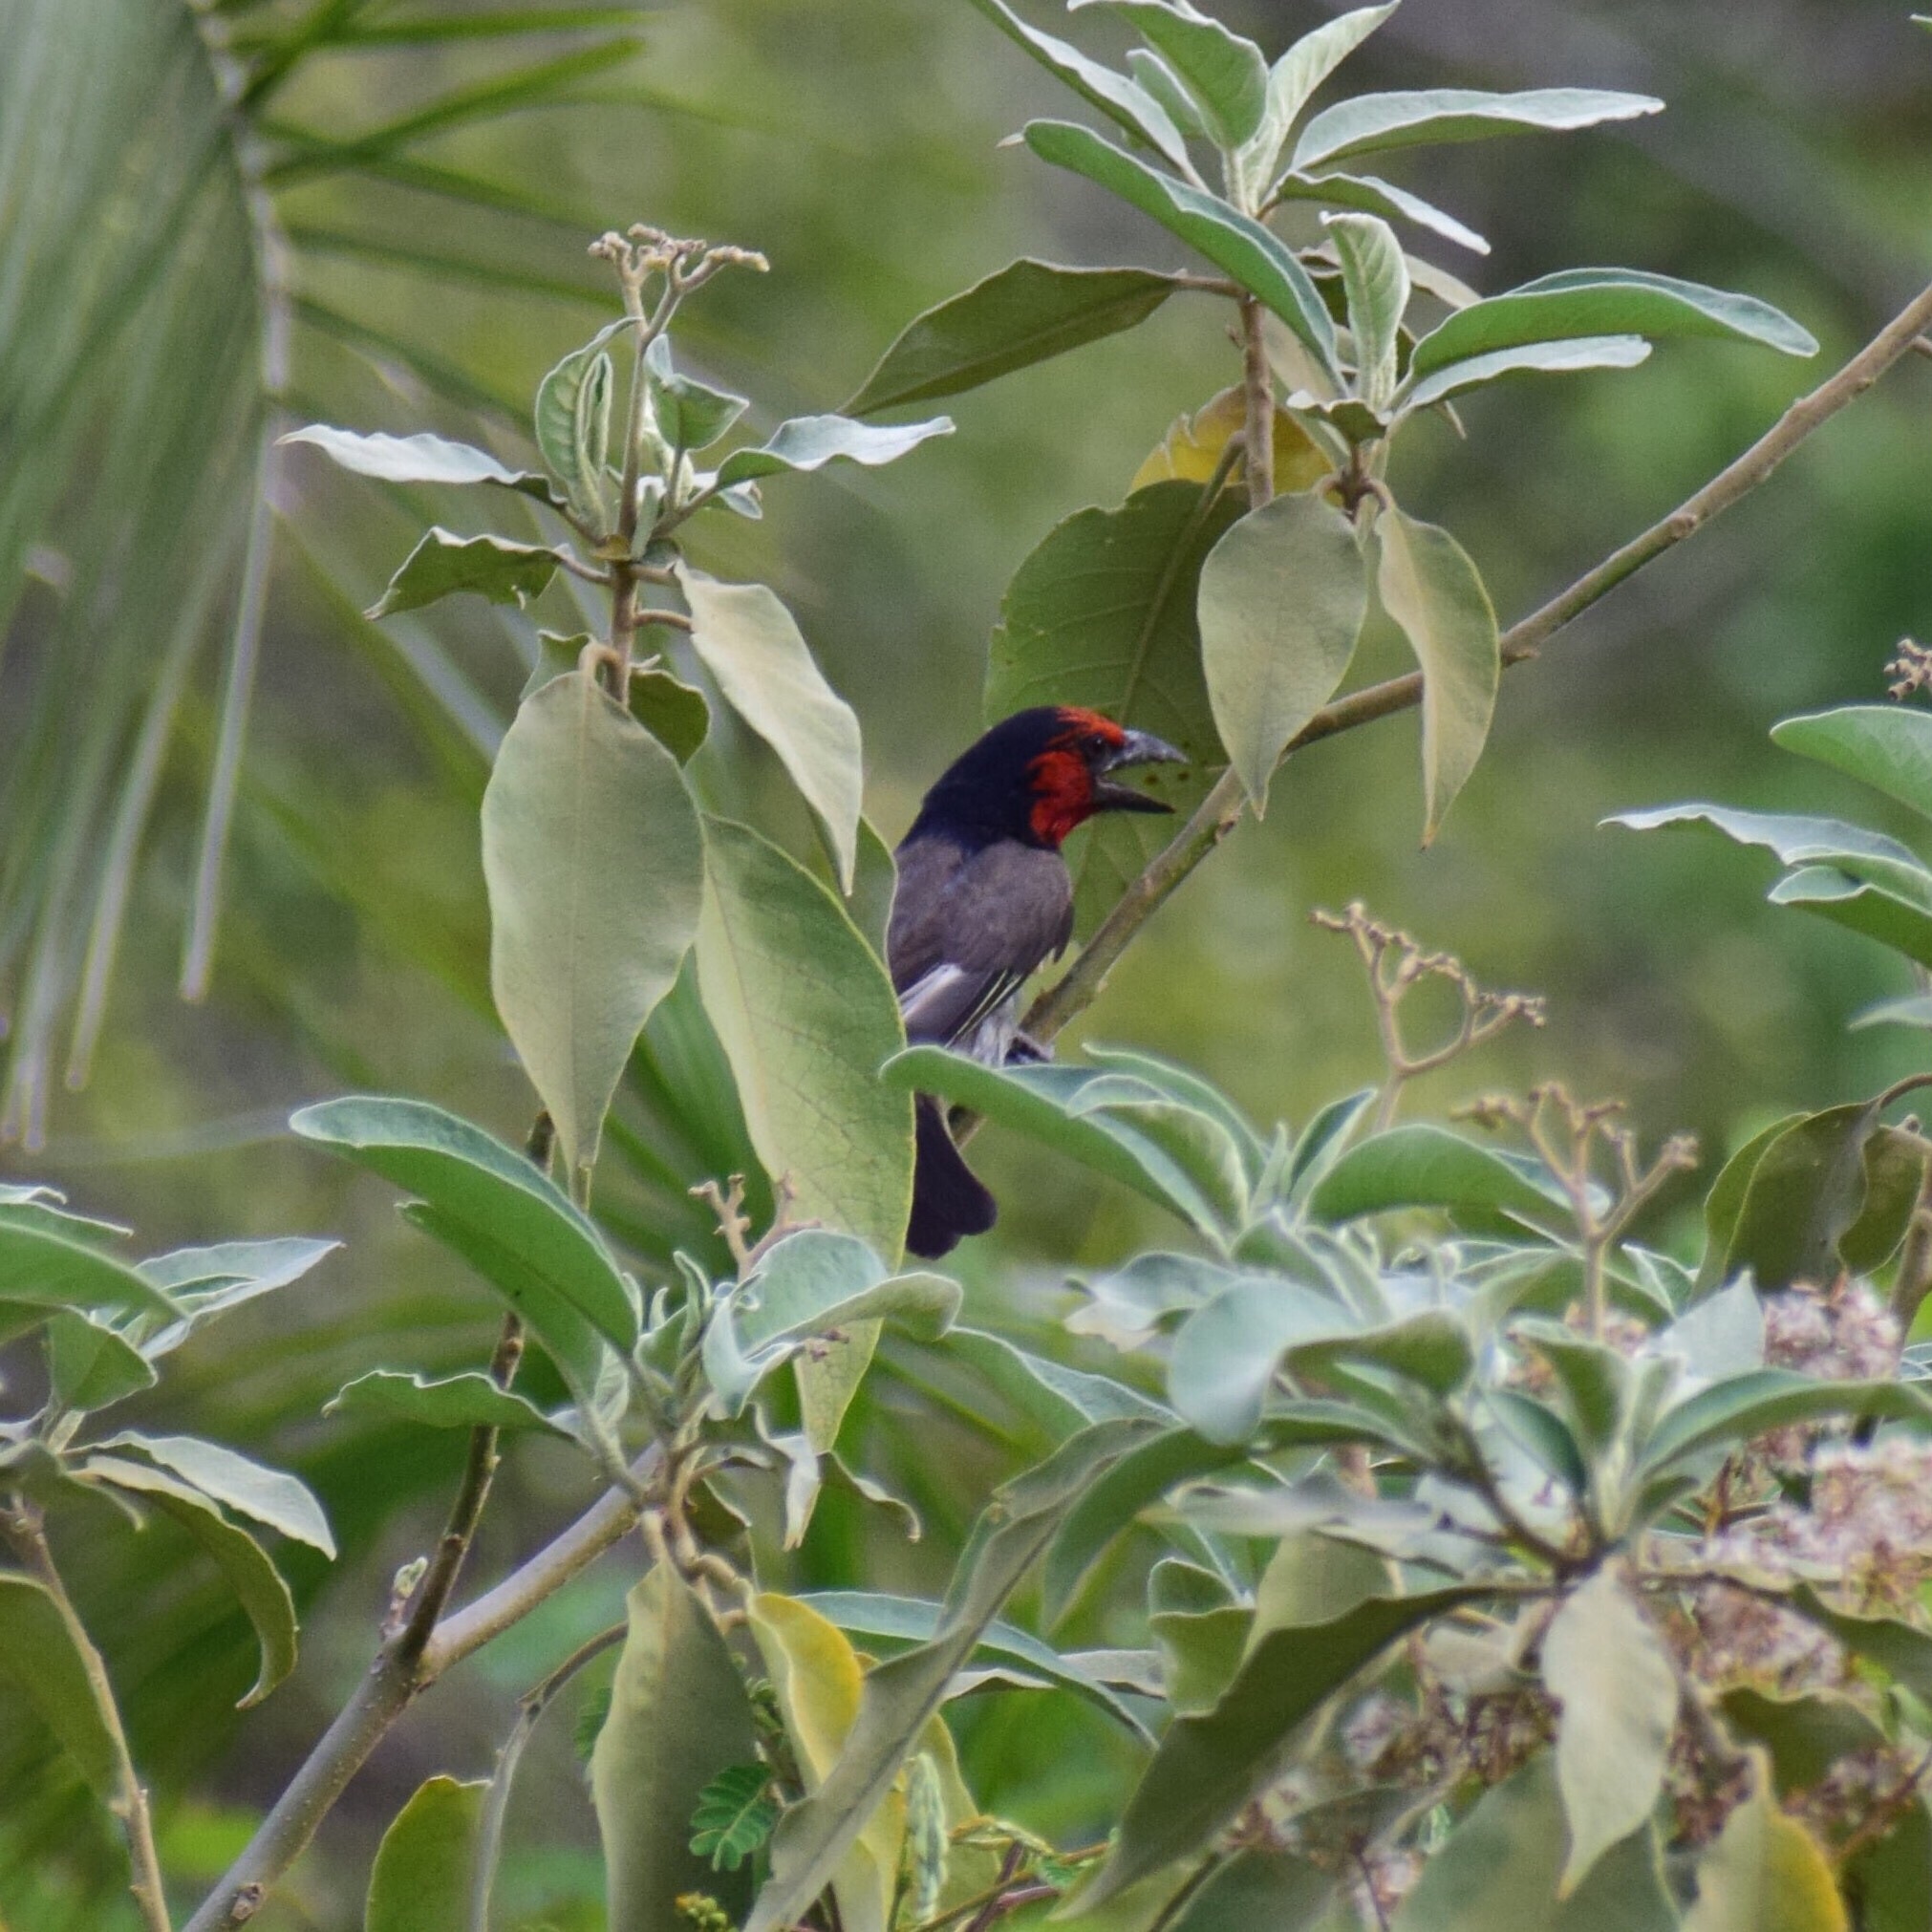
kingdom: Animalia
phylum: Chordata
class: Aves
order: Piciformes
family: Lybiidae
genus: Lybius
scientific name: Lybius torquatus
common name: Black-collared barbet
